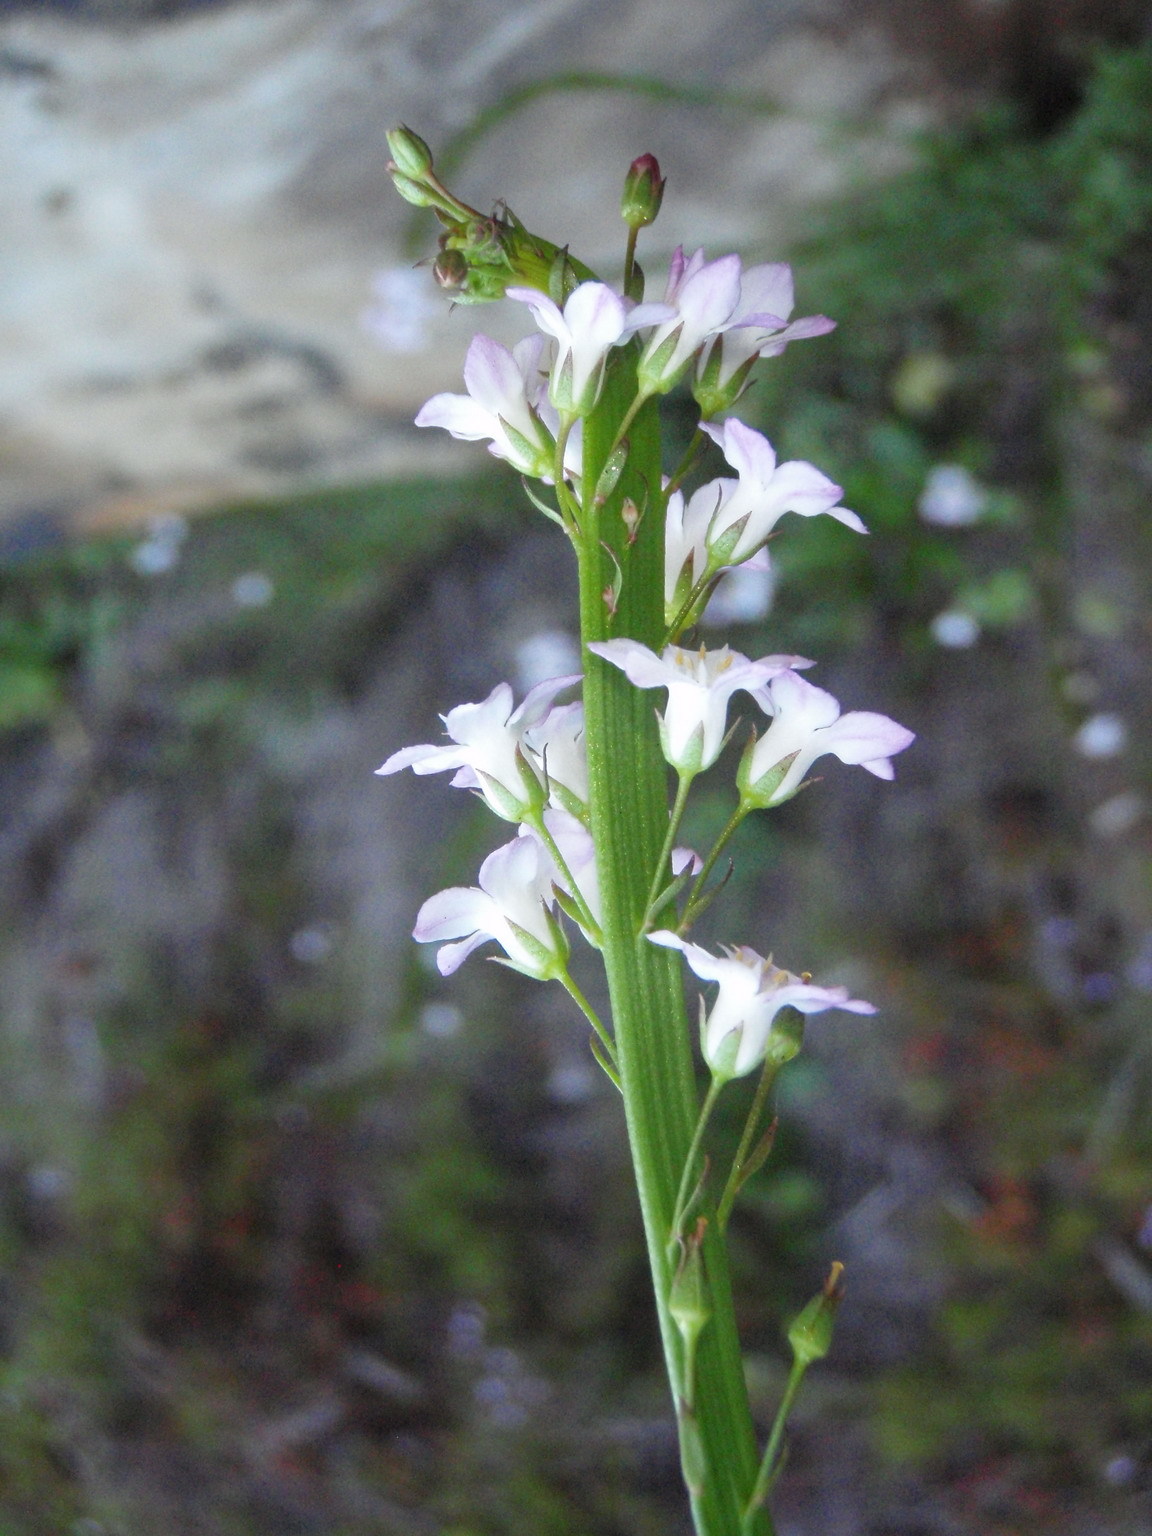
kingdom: Plantae
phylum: Tracheophyta
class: Magnoliopsida
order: Ericales
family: Primulaceae
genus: Samolus
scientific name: Samolus porosus
